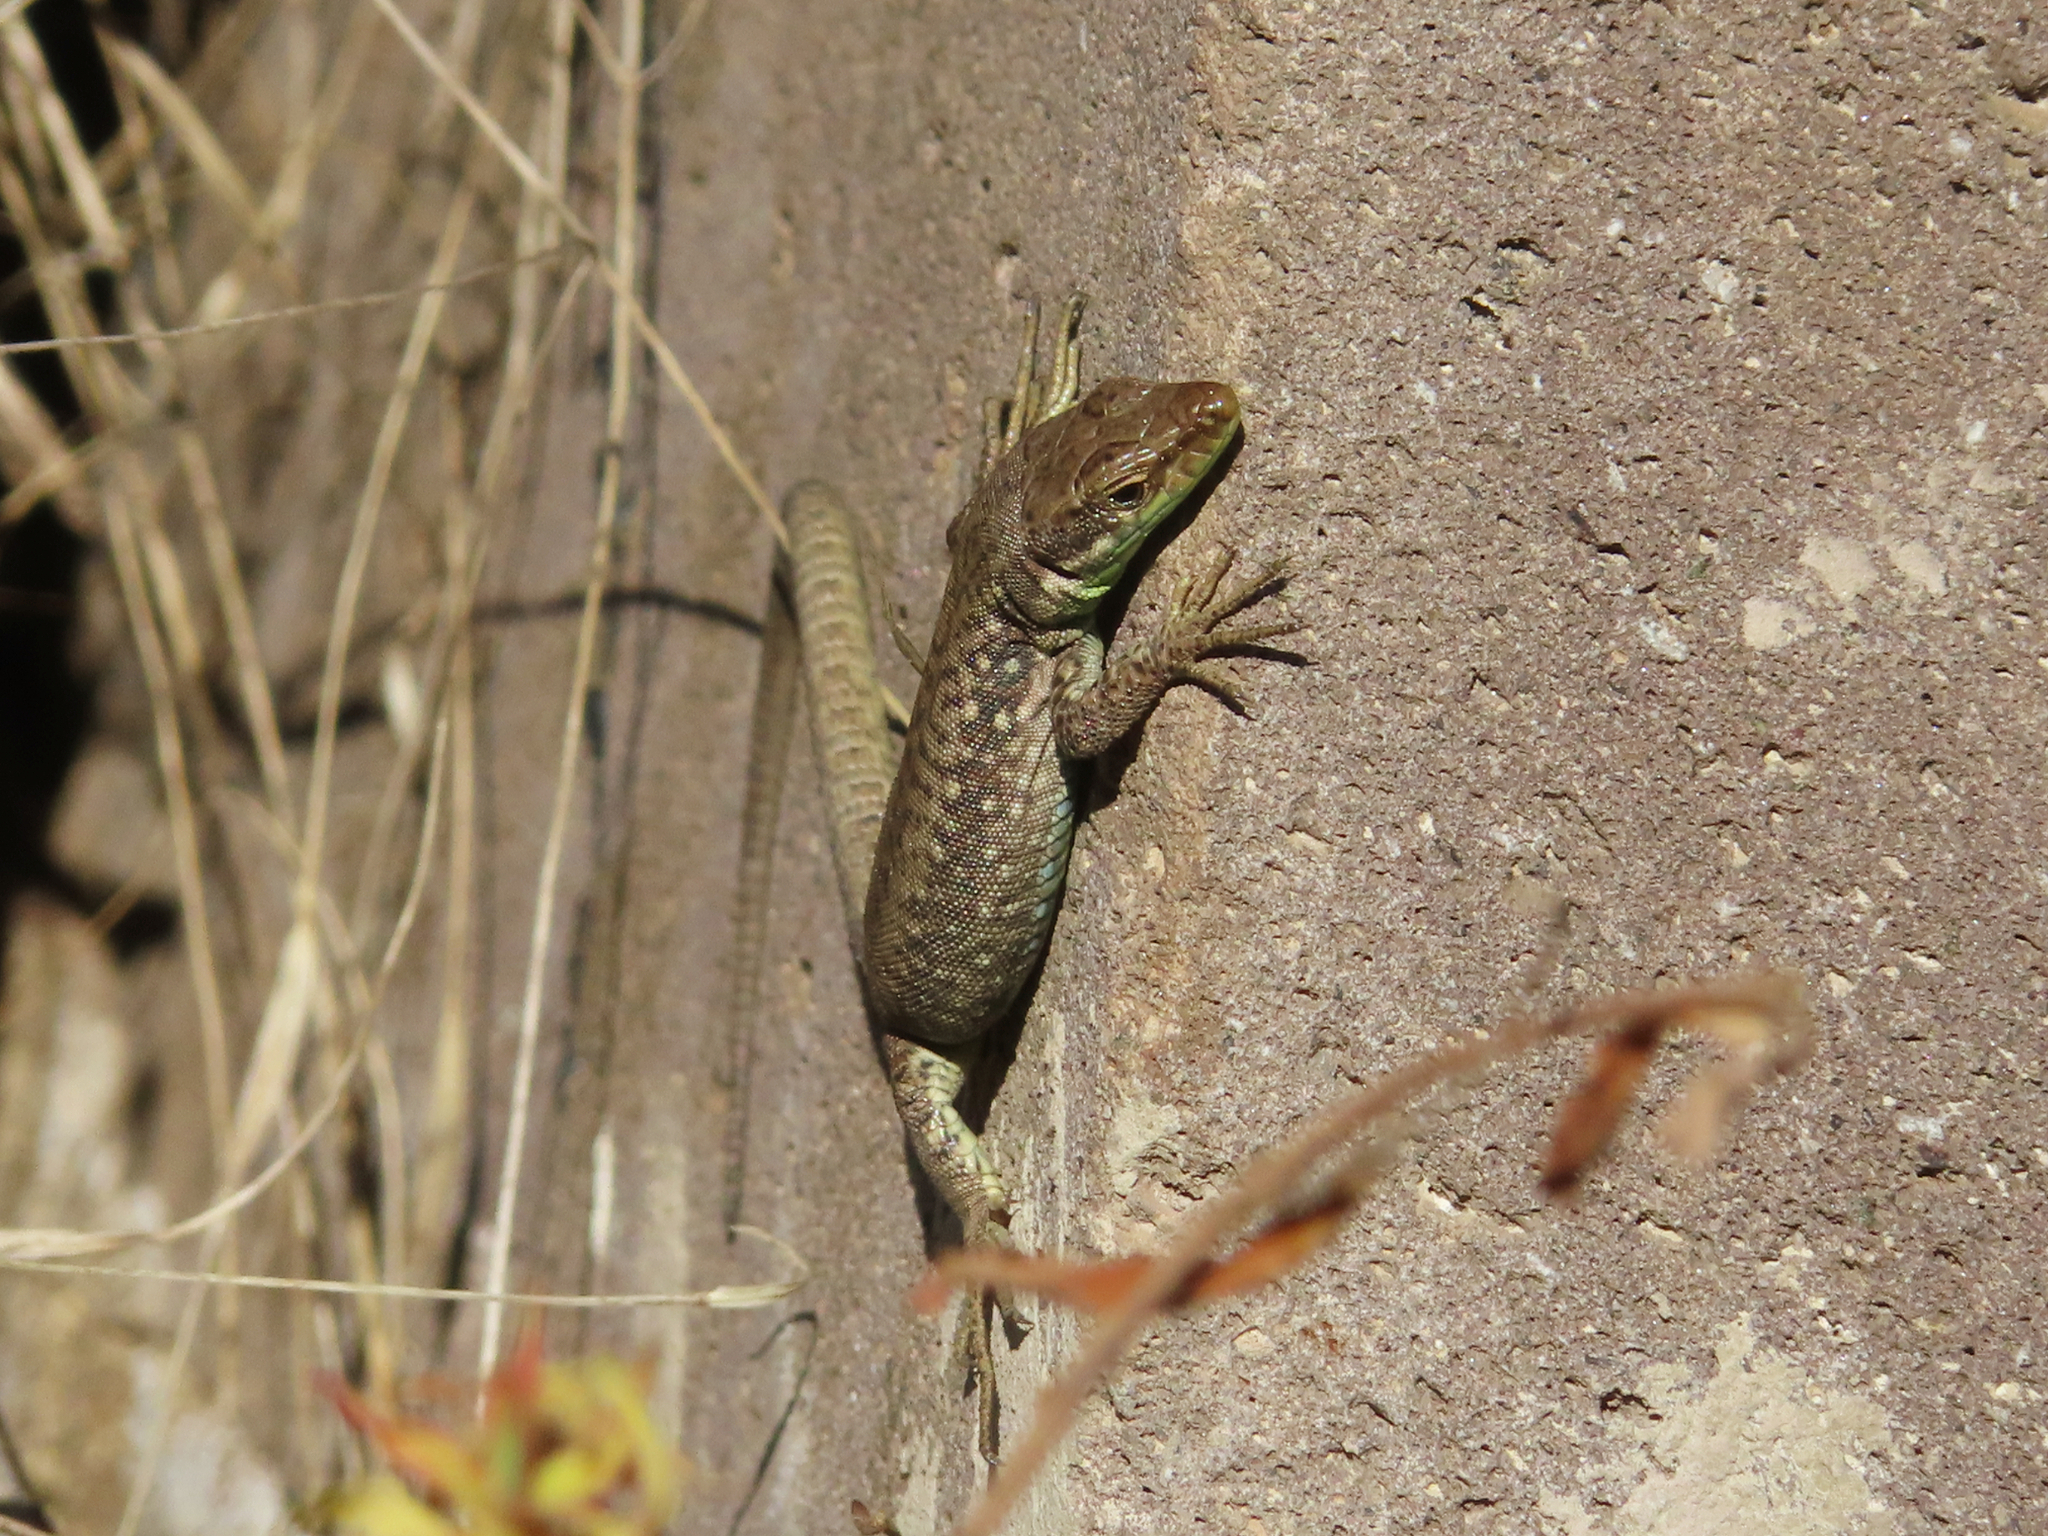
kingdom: Animalia
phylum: Chordata
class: Squamata
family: Lacertidae
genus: Darevskia
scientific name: Darevskia raddei
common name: Radde's lizard
